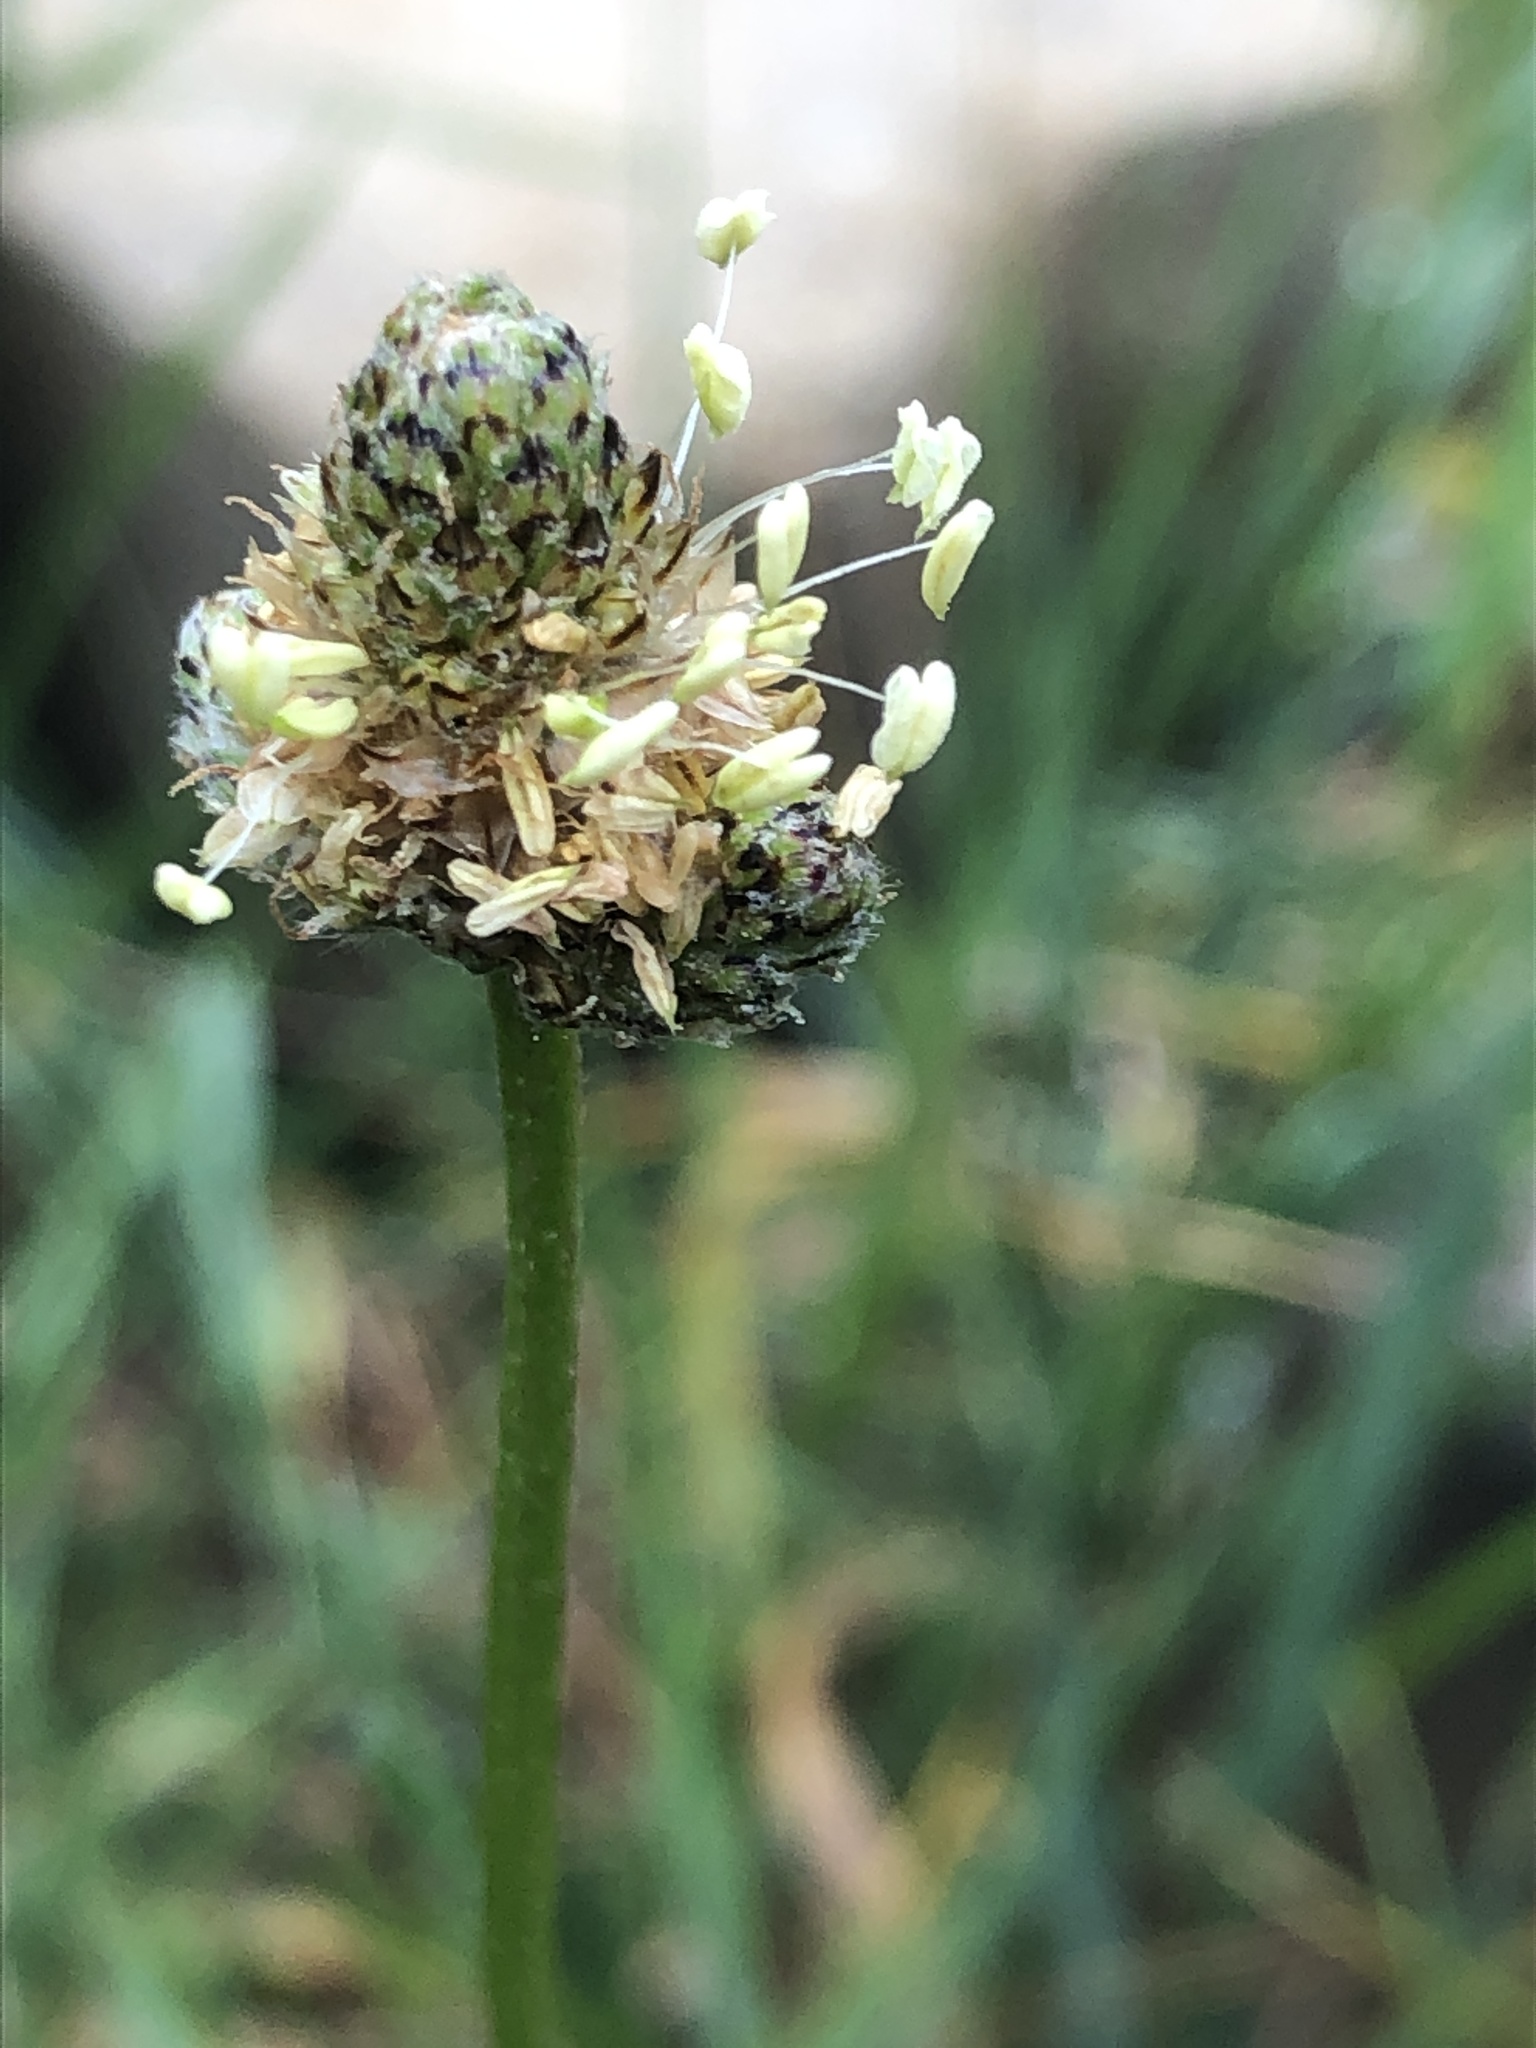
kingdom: Plantae
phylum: Tracheophyta
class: Magnoliopsida
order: Lamiales
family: Plantaginaceae
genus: Plantago
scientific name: Plantago lanceolata
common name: Ribwort plantain
